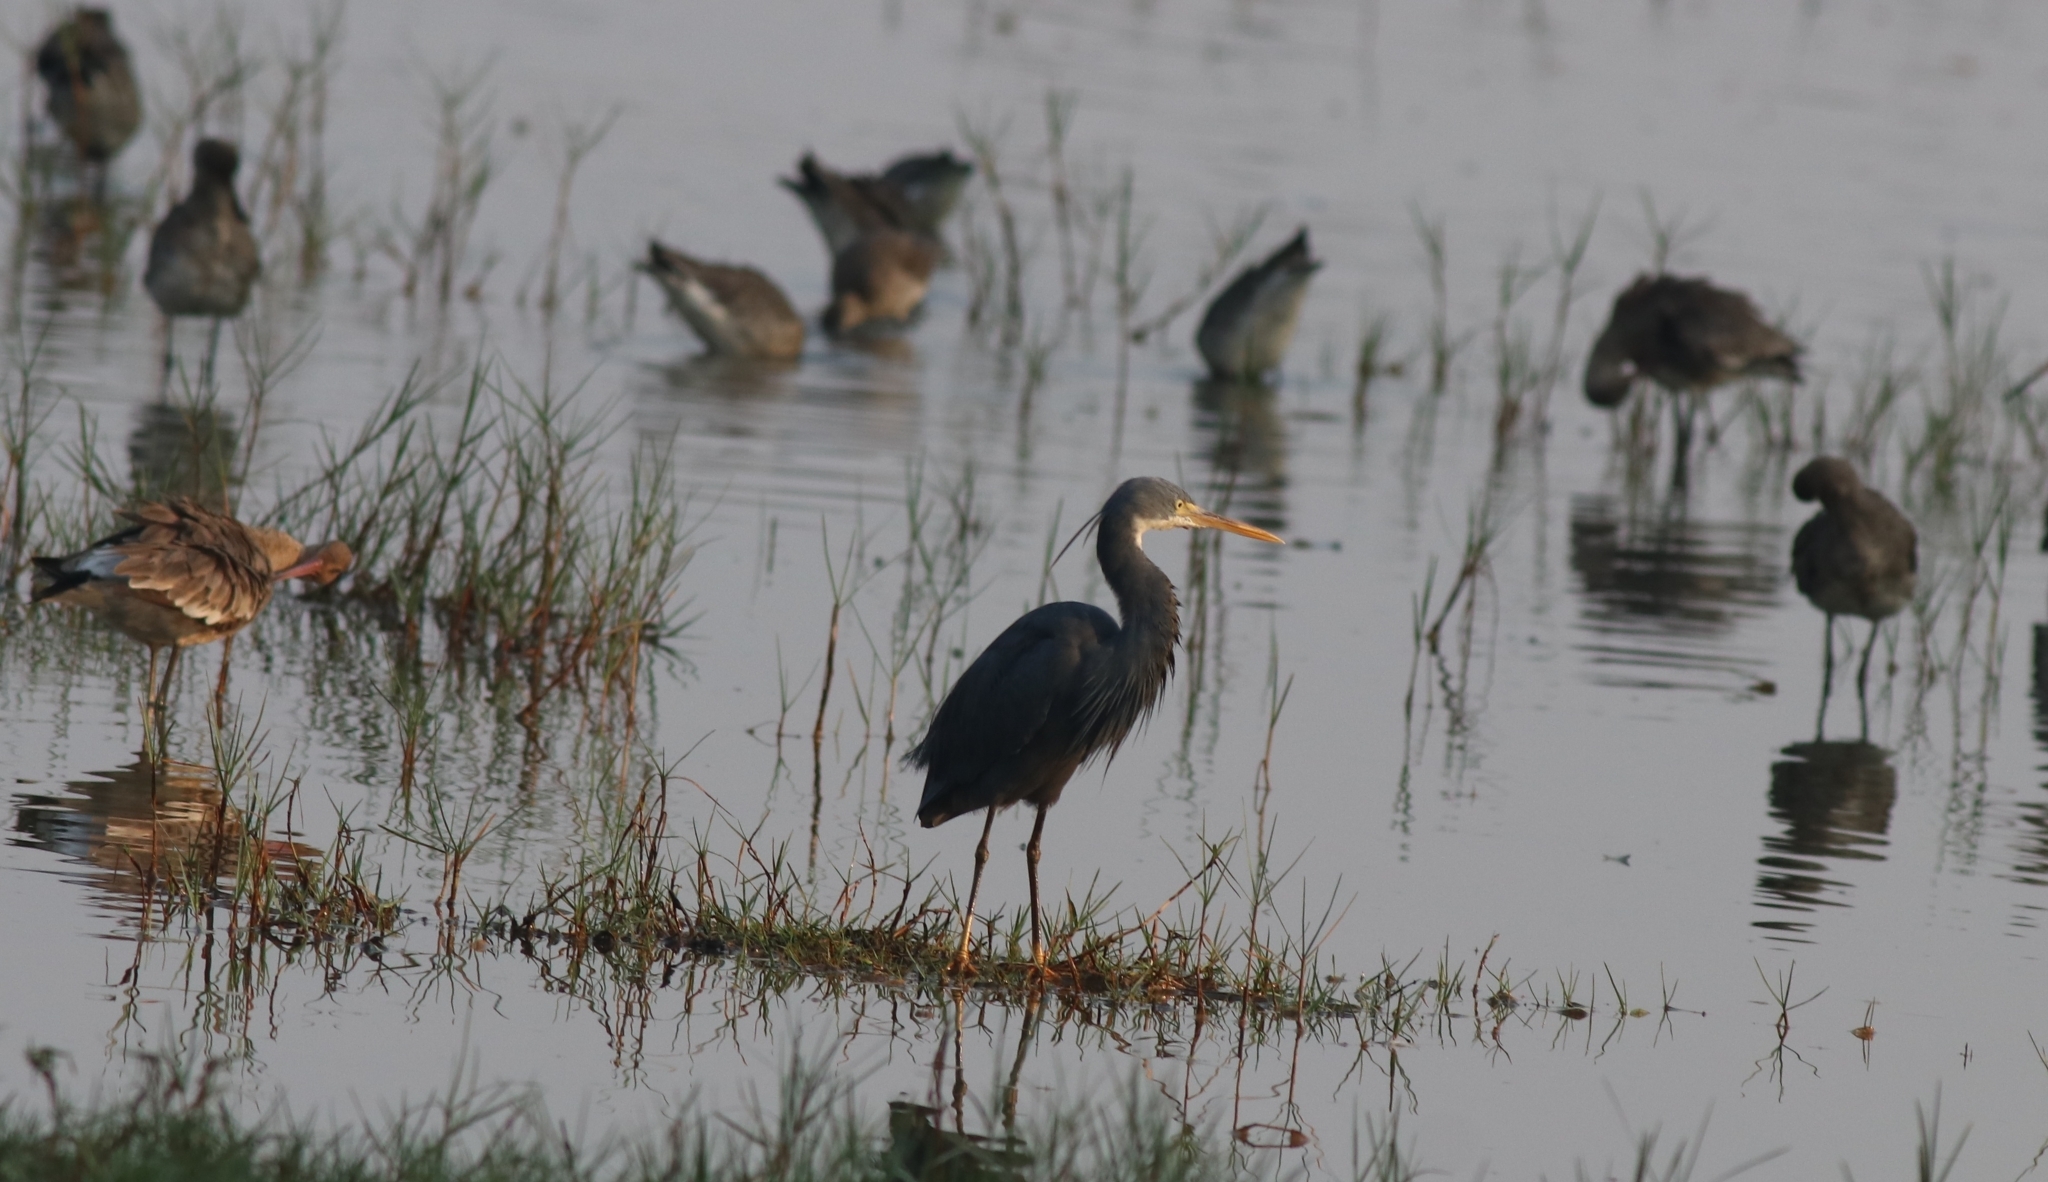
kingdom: Animalia
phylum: Chordata
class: Aves
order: Pelecaniformes
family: Ardeidae
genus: Egretta
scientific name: Egretta gularis
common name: Western reef-heron
